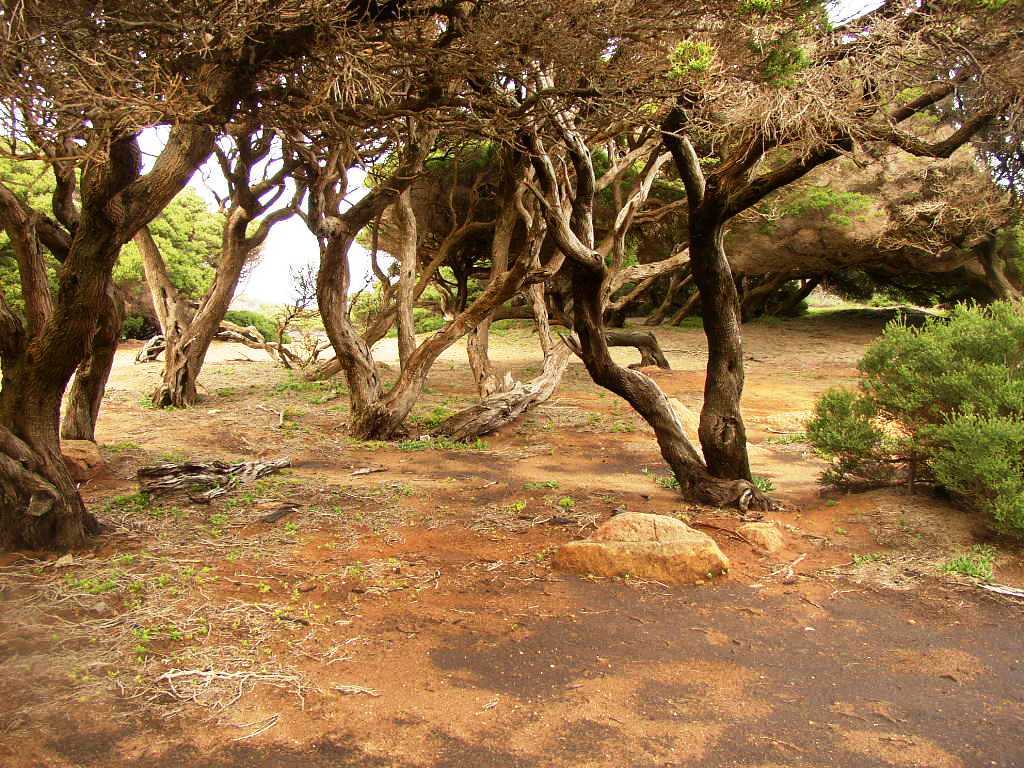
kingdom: Plantae
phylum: Tracheophyta
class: Magnoliopsida
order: Myrtales
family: Myrtaceae
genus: Melaleuca
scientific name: Melaleuca lanceolata
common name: Rottnest island teatree
